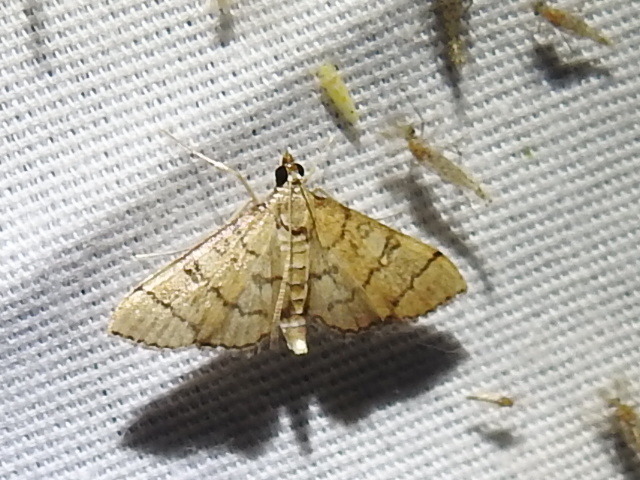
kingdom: Animalia
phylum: Arthropoda
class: Insecta
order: Lepidoptera
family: Crambidae
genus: Lamprosema
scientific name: Lamprosema Blepharomastix ranalis
